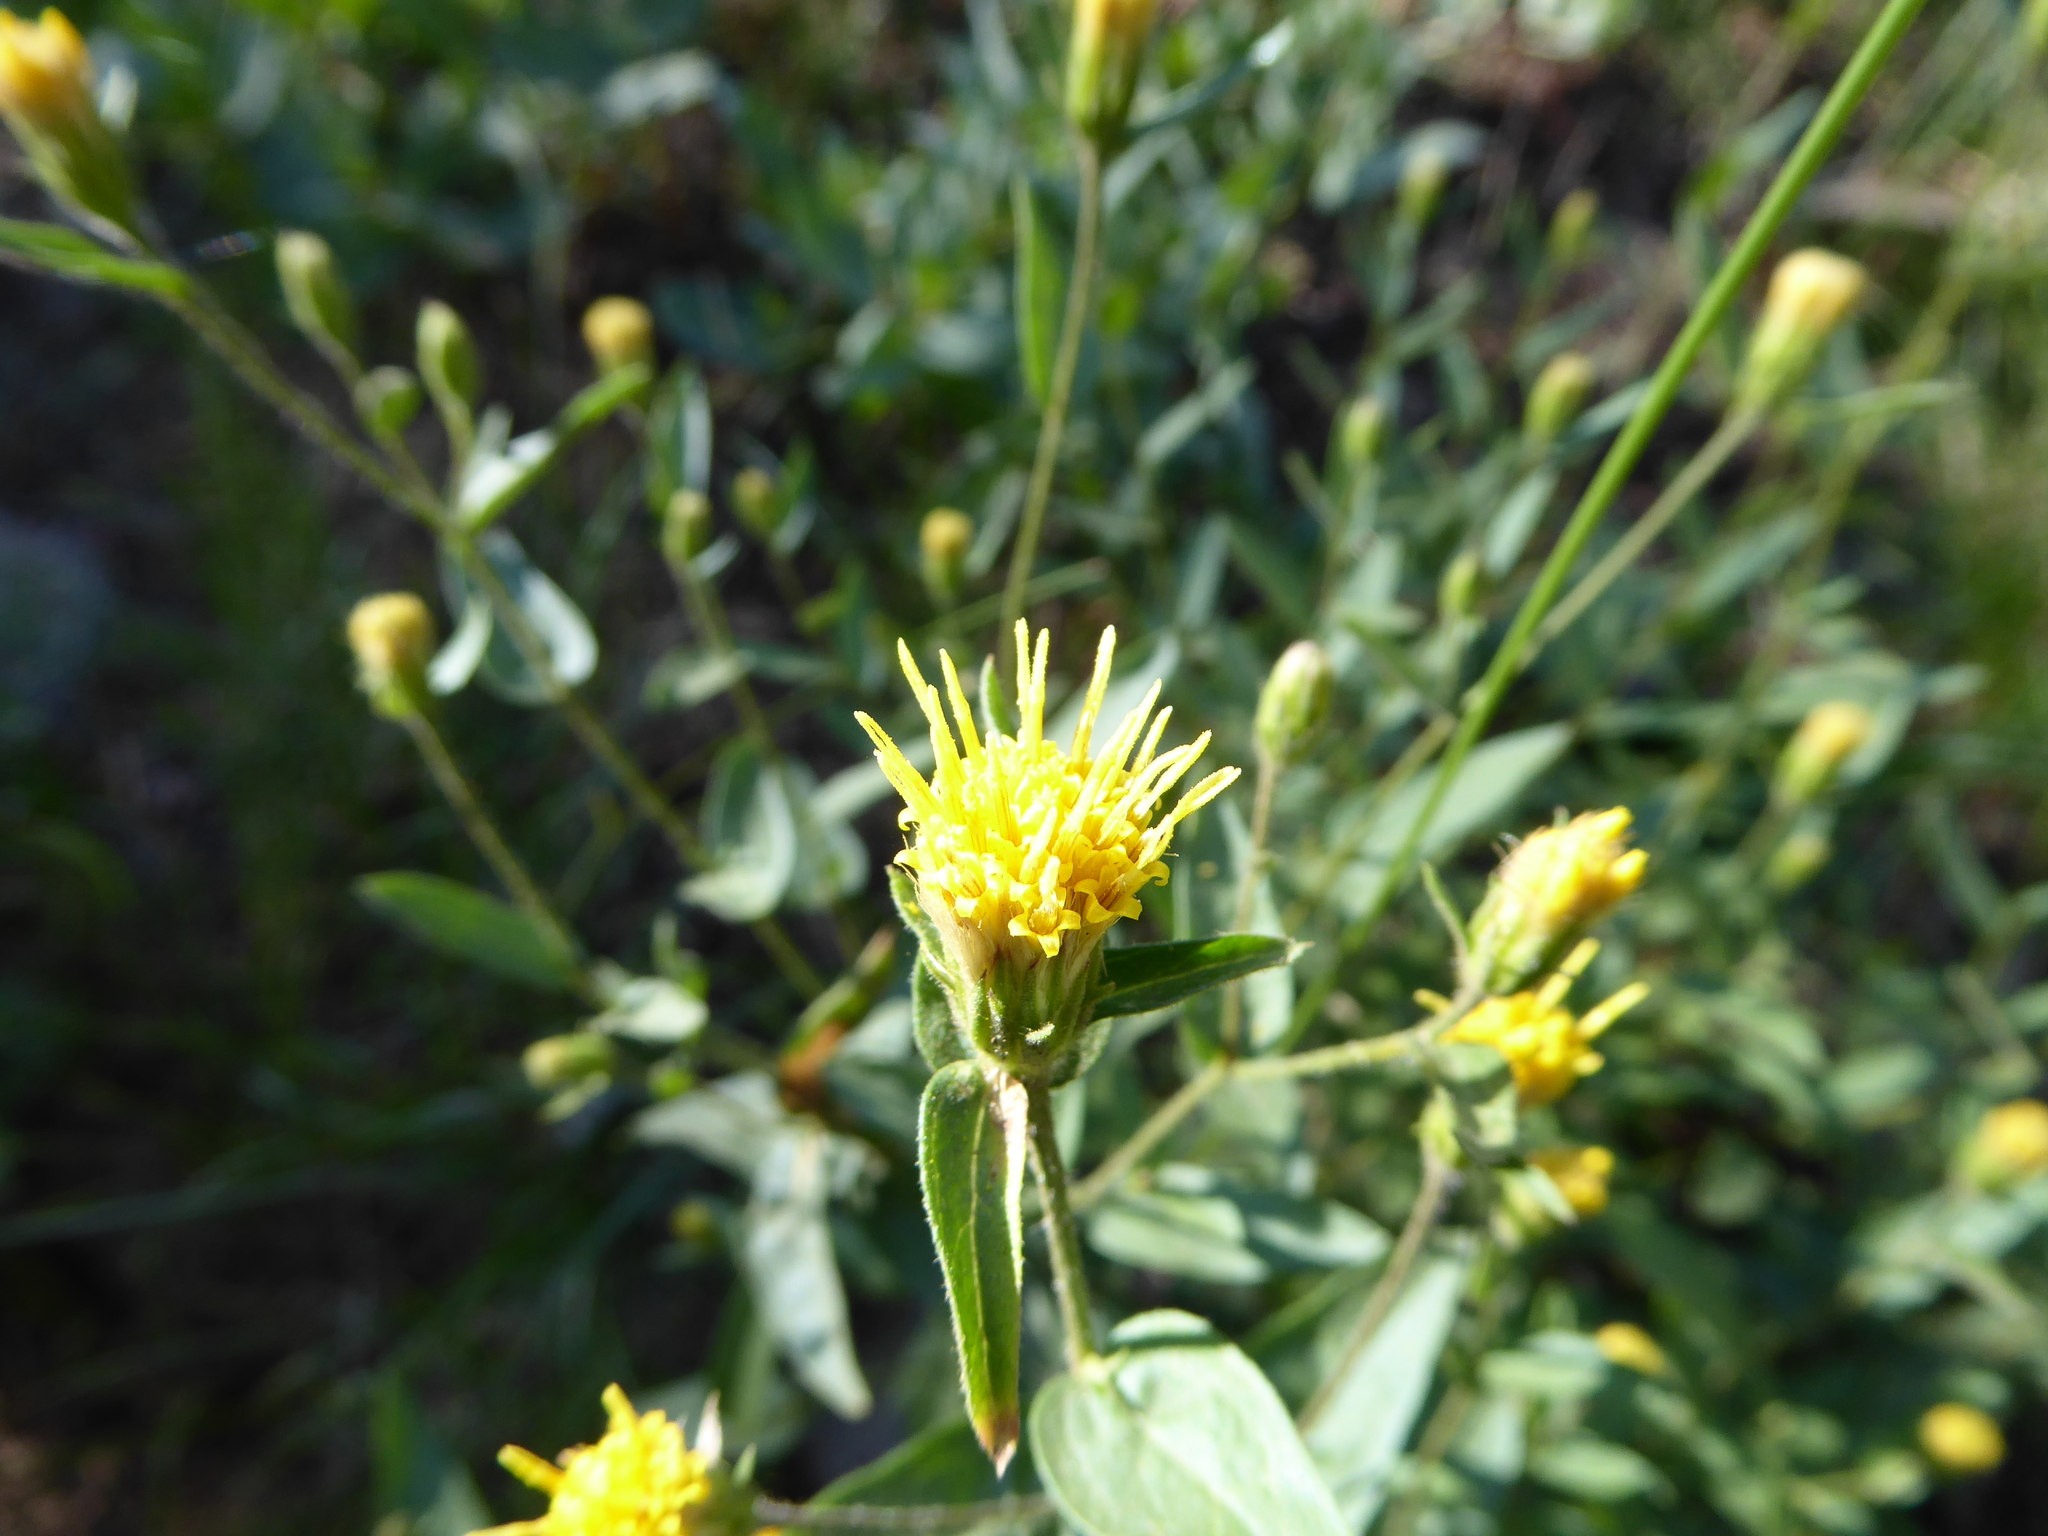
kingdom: Plantae
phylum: Tracheophyta
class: Magnoliopsida
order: Asterales
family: Asteraceae
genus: Eucephalus
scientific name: Eucephalus breweri
